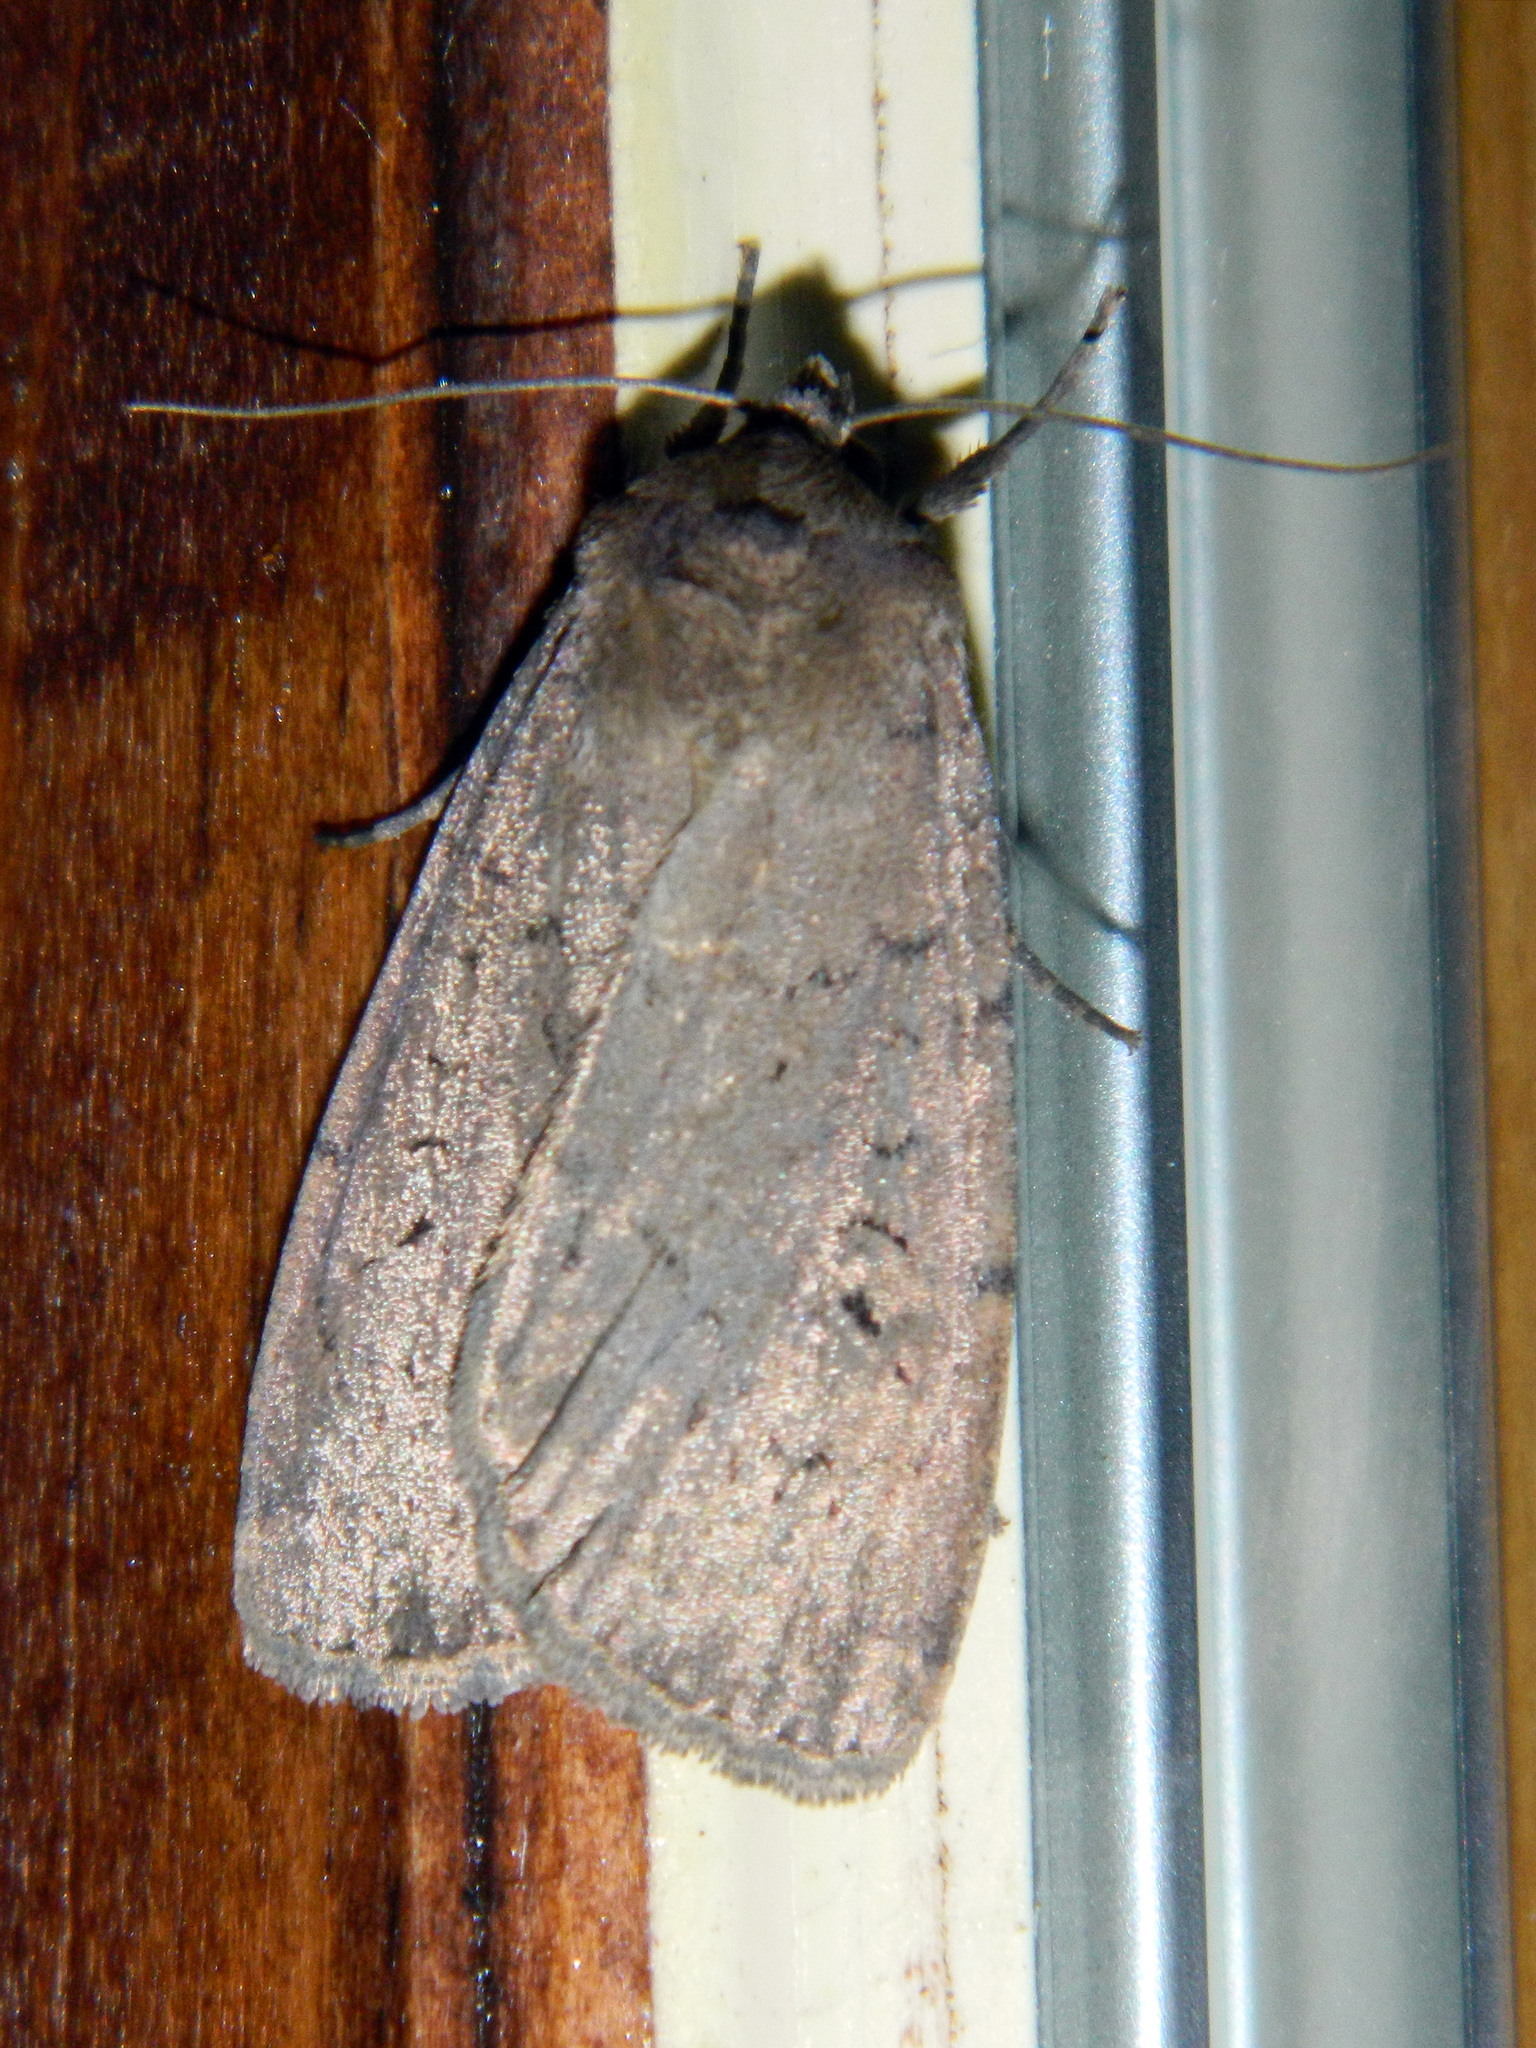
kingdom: Animalia
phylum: Arthropoda
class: Insecta
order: Lepidoptera
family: Noctuidae
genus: Spaelotis
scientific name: Spaelotis clandestina
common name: Clandestine dart
